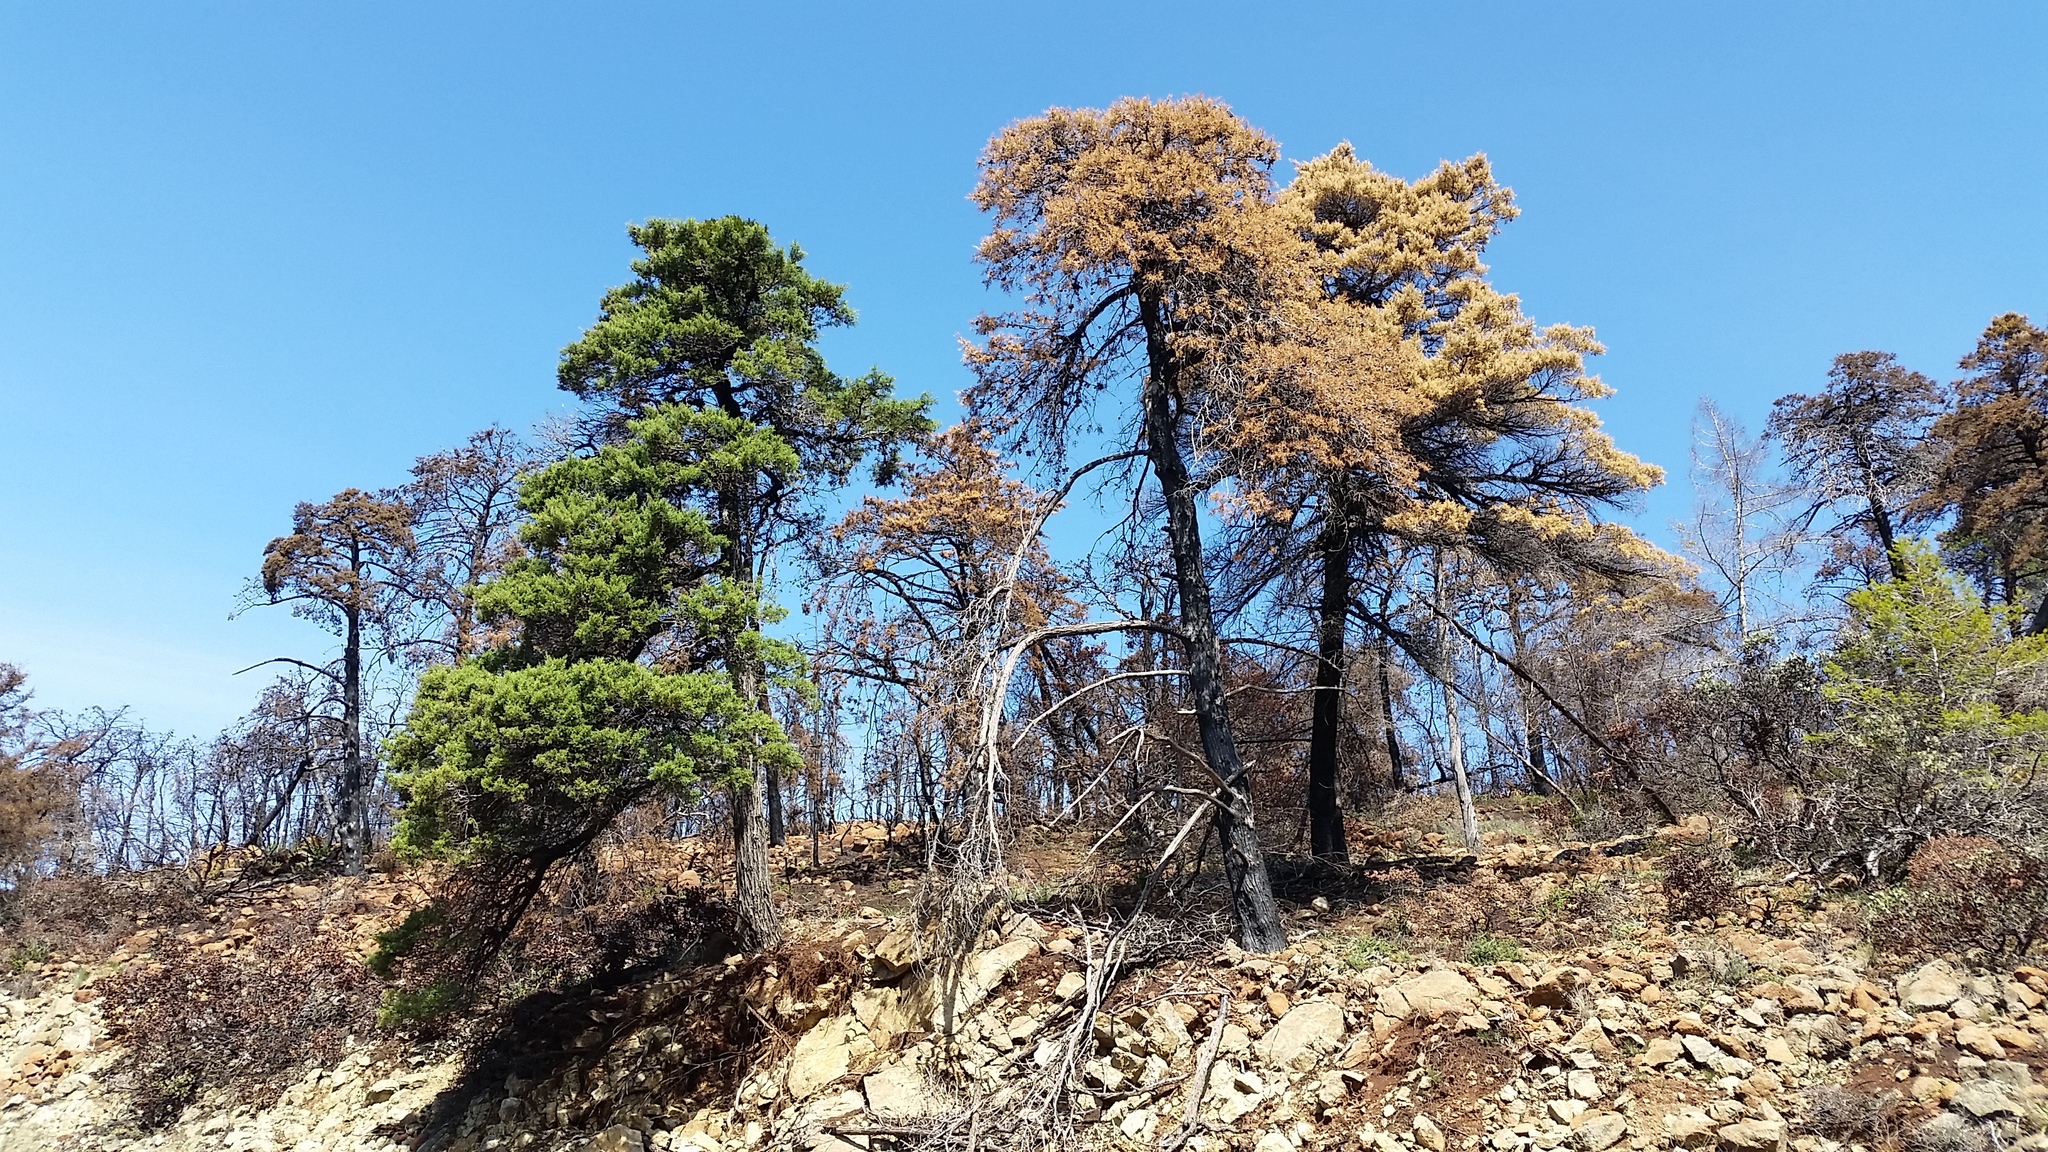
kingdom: Plantae
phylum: Tracheophyta
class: Pinopsida
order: Pinales
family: Cupressaceae
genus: Cupressus
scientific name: Cupressus sargentii
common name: Sargent cypress
